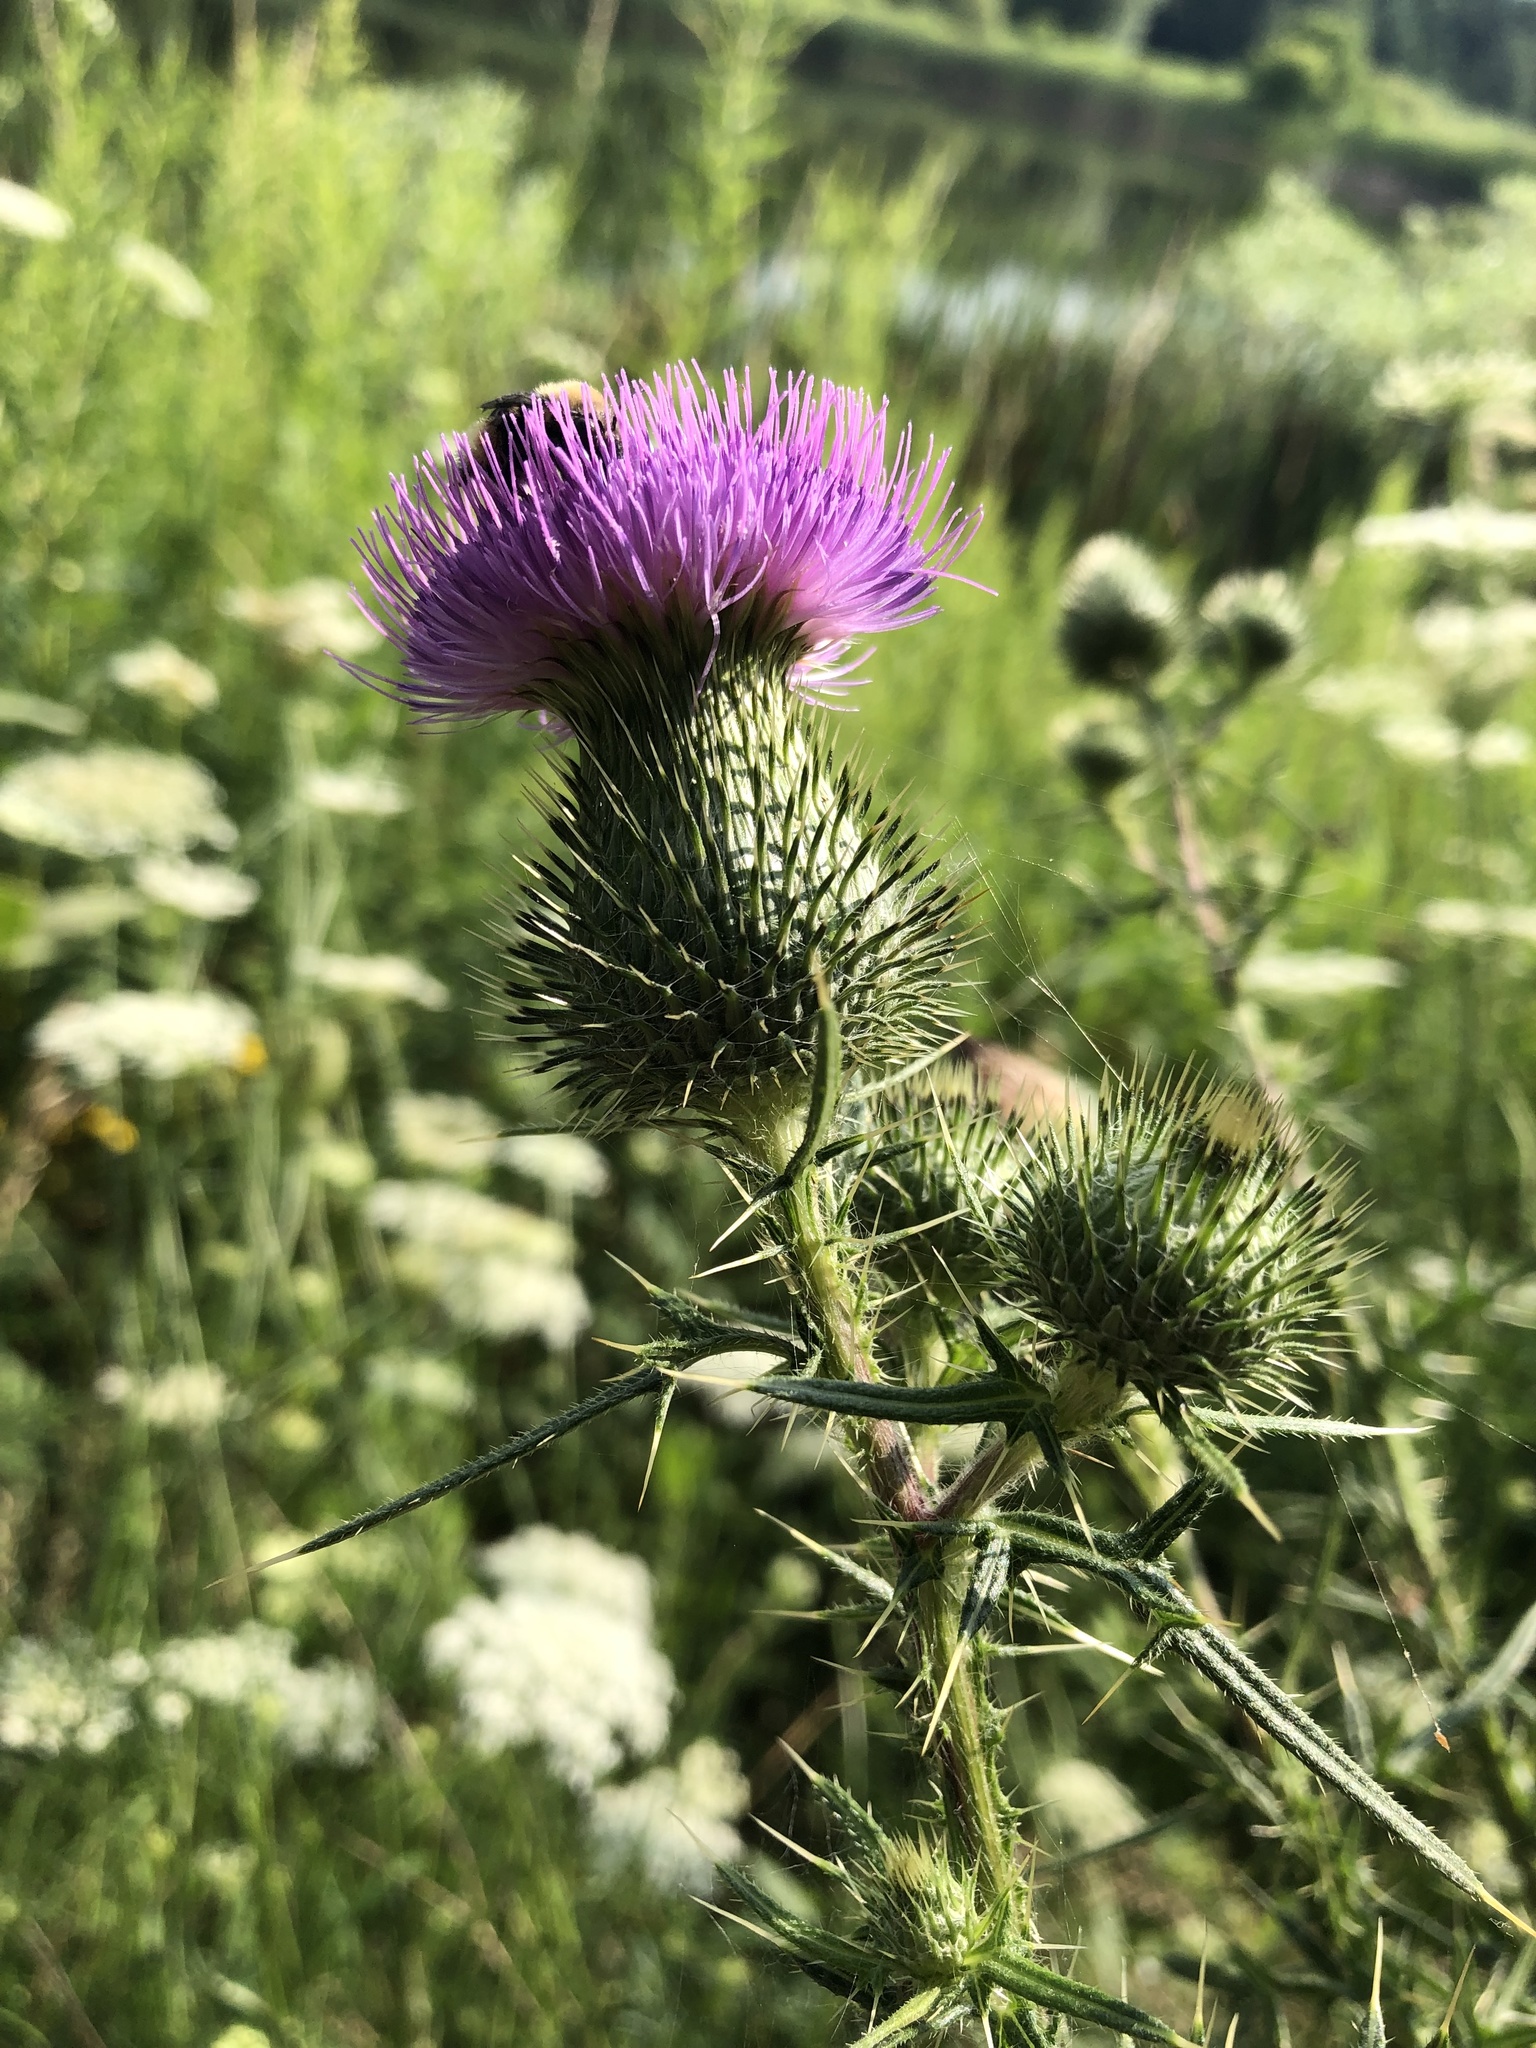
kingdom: Plantae
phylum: Tracheophyta
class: Magnoliopsida
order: Asterales
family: Asteraceae
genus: Cirsium
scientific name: Cirsium vulgare
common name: Bull thistle
